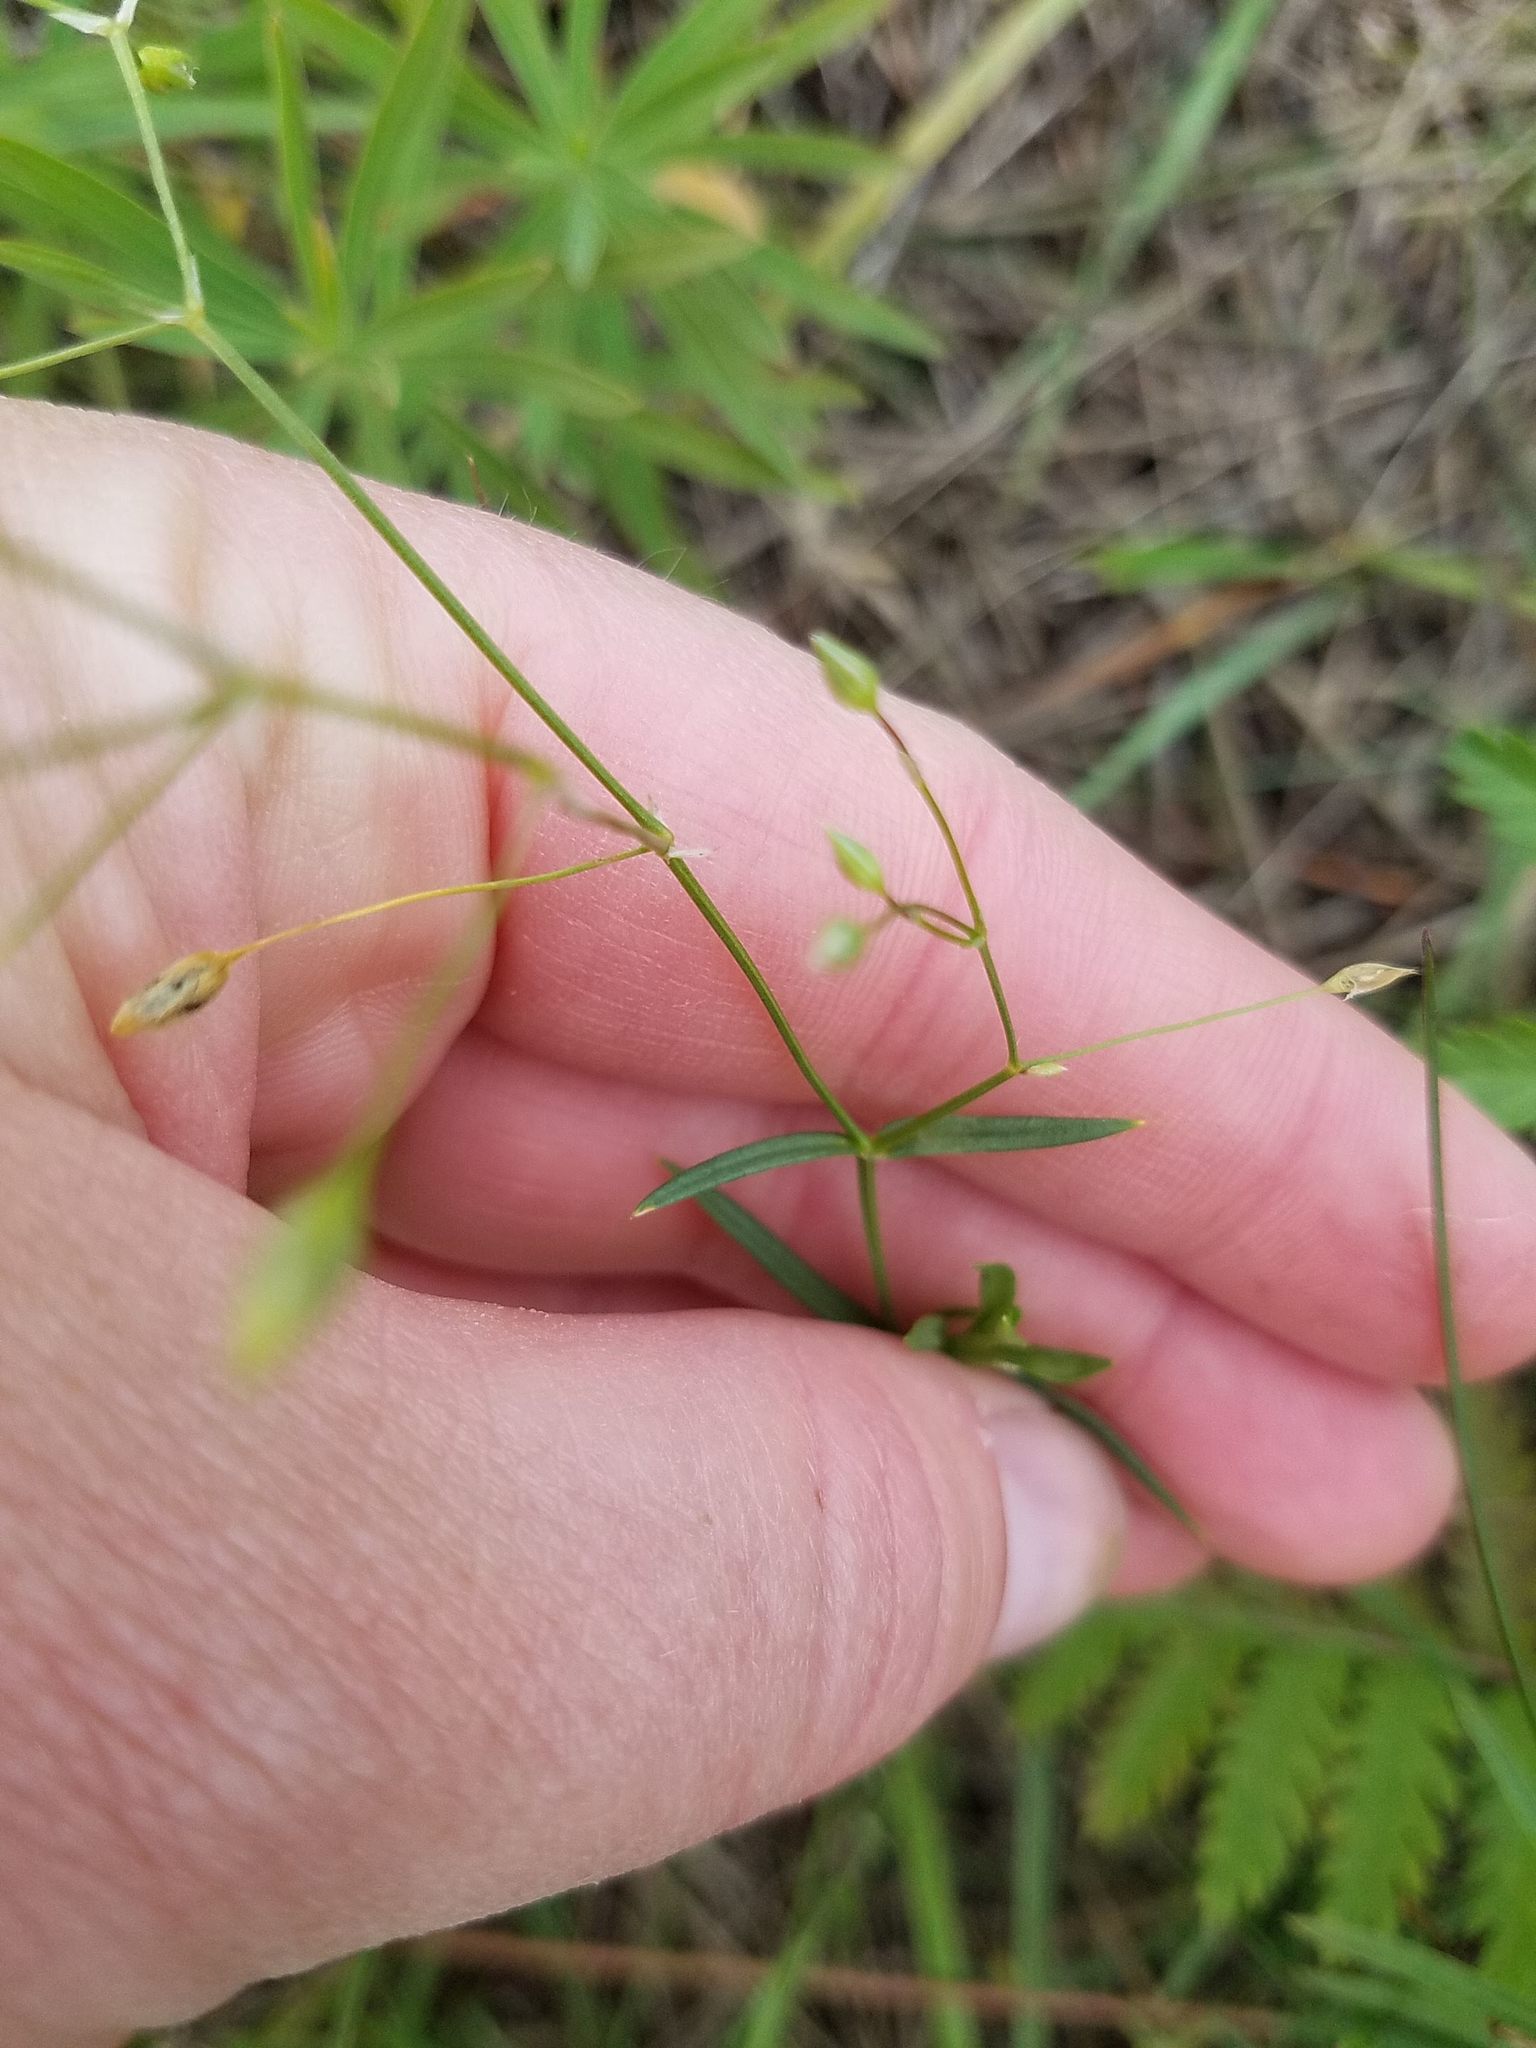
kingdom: Plantae
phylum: Tracheophyta
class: Magnoliopsida
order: Caryophyllales
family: Caryophyllaceae
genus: Stellaria
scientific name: Stellaria graminea
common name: Grass-like starwort
